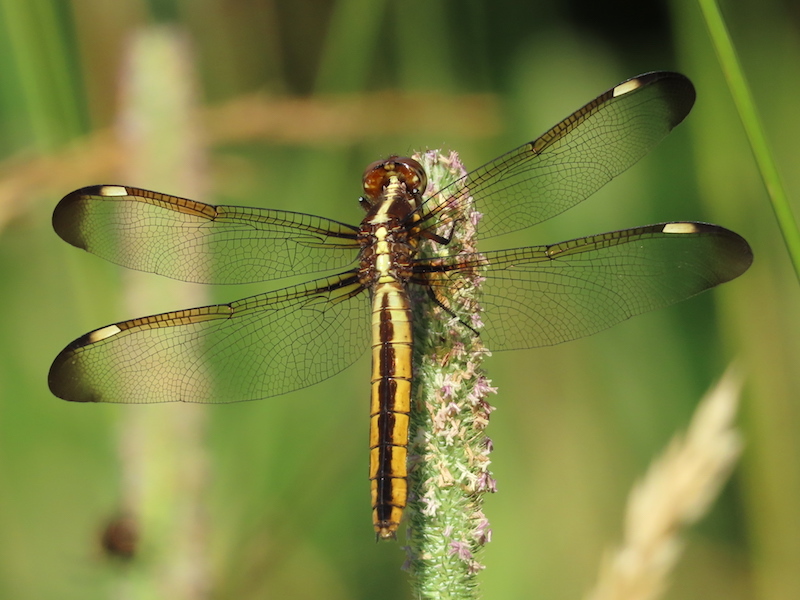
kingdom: Animalia
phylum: Arthropoda
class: Insecta
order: Odonata
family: Libellulidae
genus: Libellula
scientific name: Libellula cyanea
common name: Spangled skimmer
